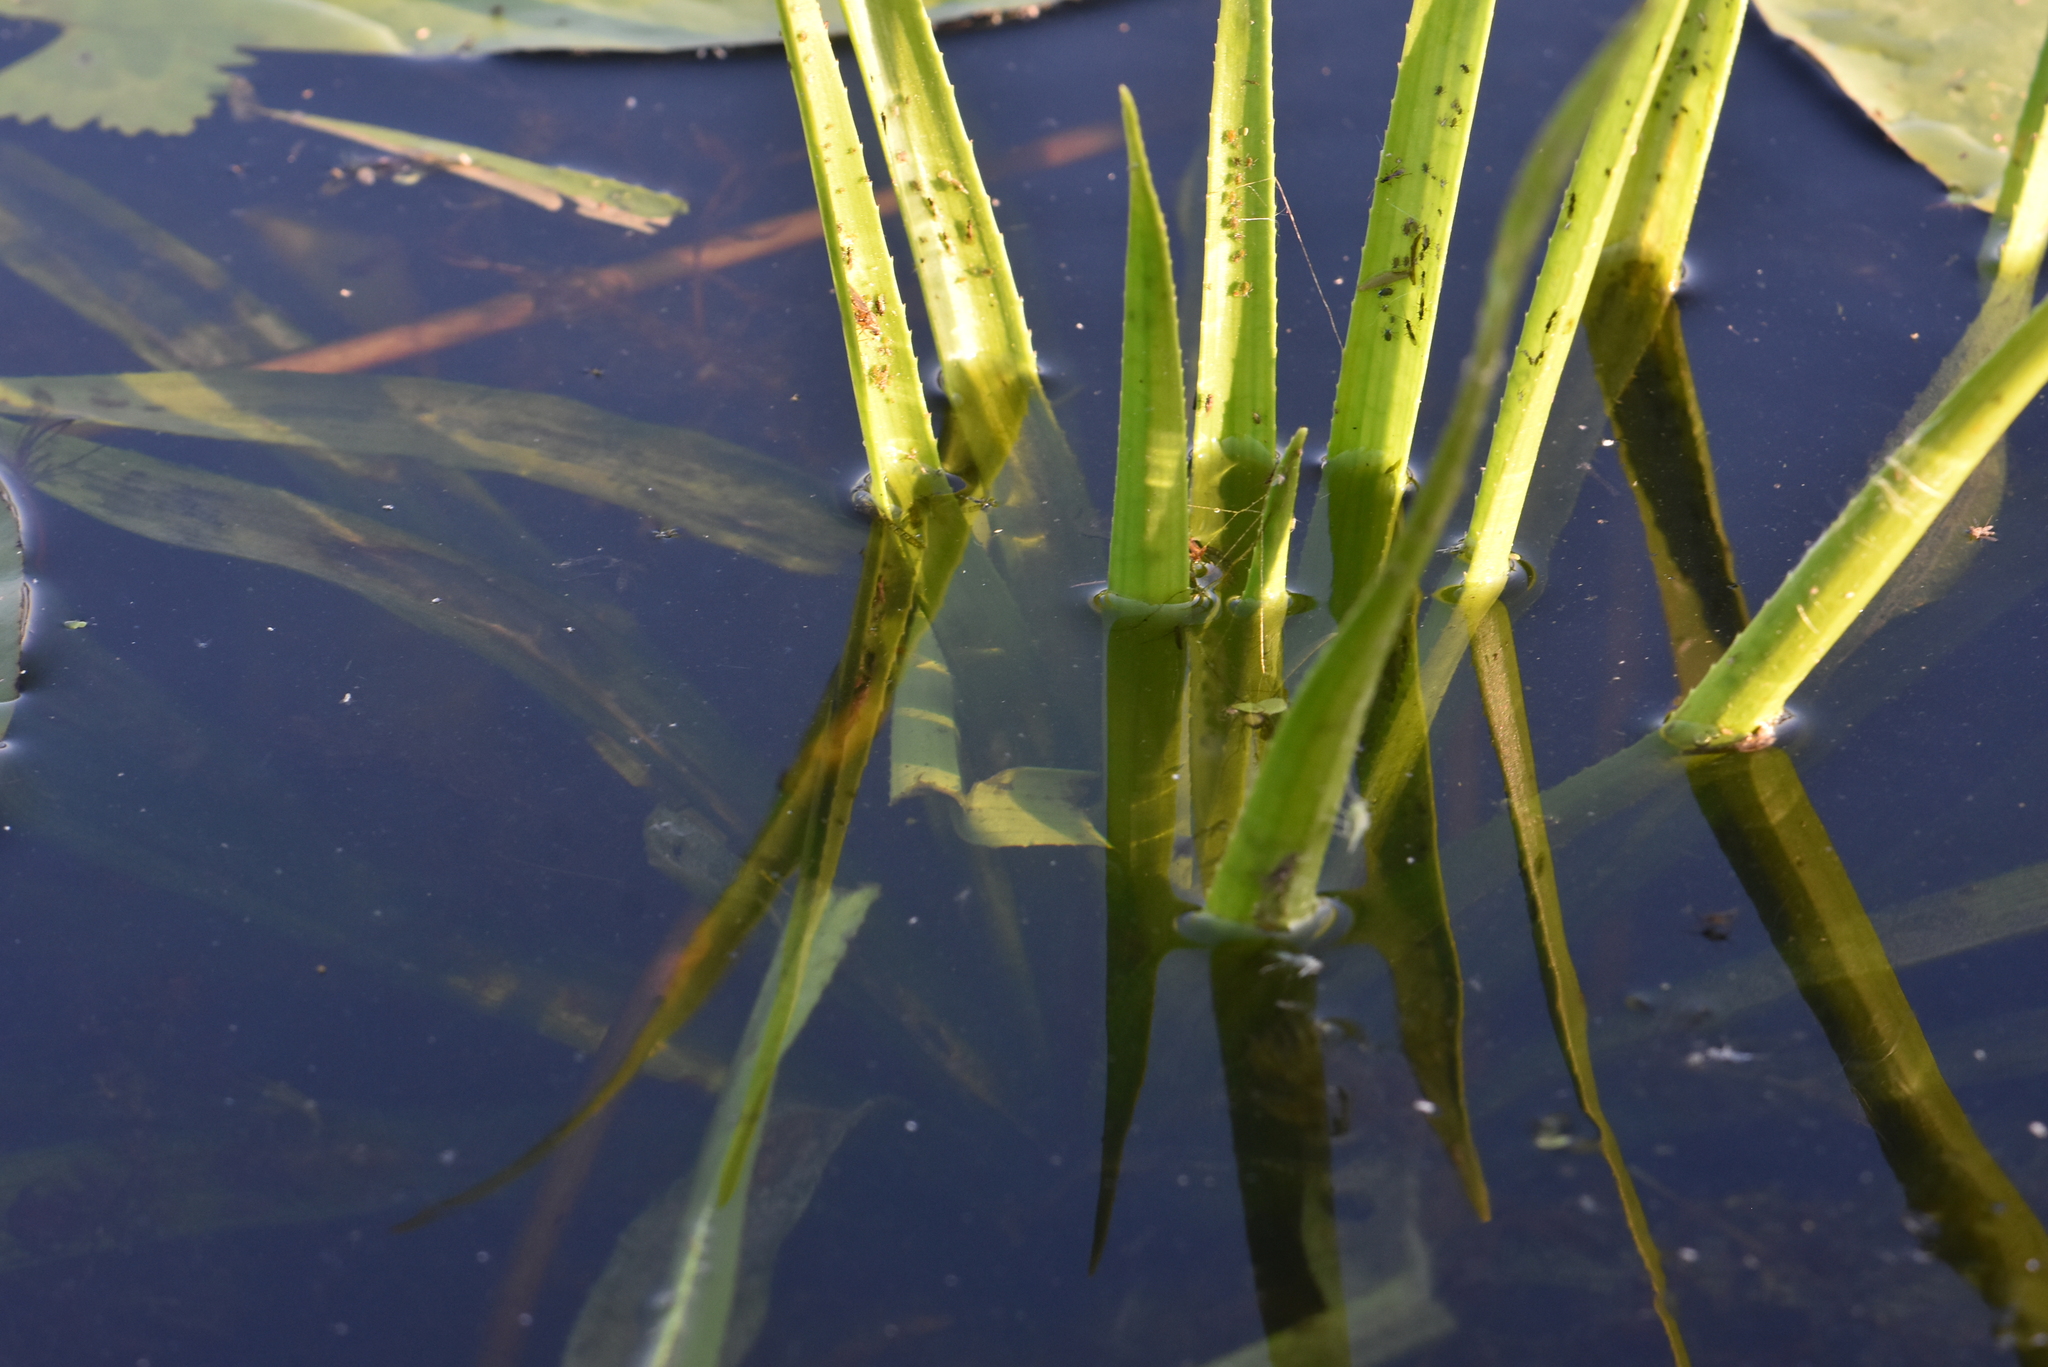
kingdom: Plantae
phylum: Tracheophyta
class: Liliopsida
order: Alismatales
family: Hydrocharitaceae
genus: Stratiotes
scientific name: Stratiotes aloides
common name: Water-soldier
